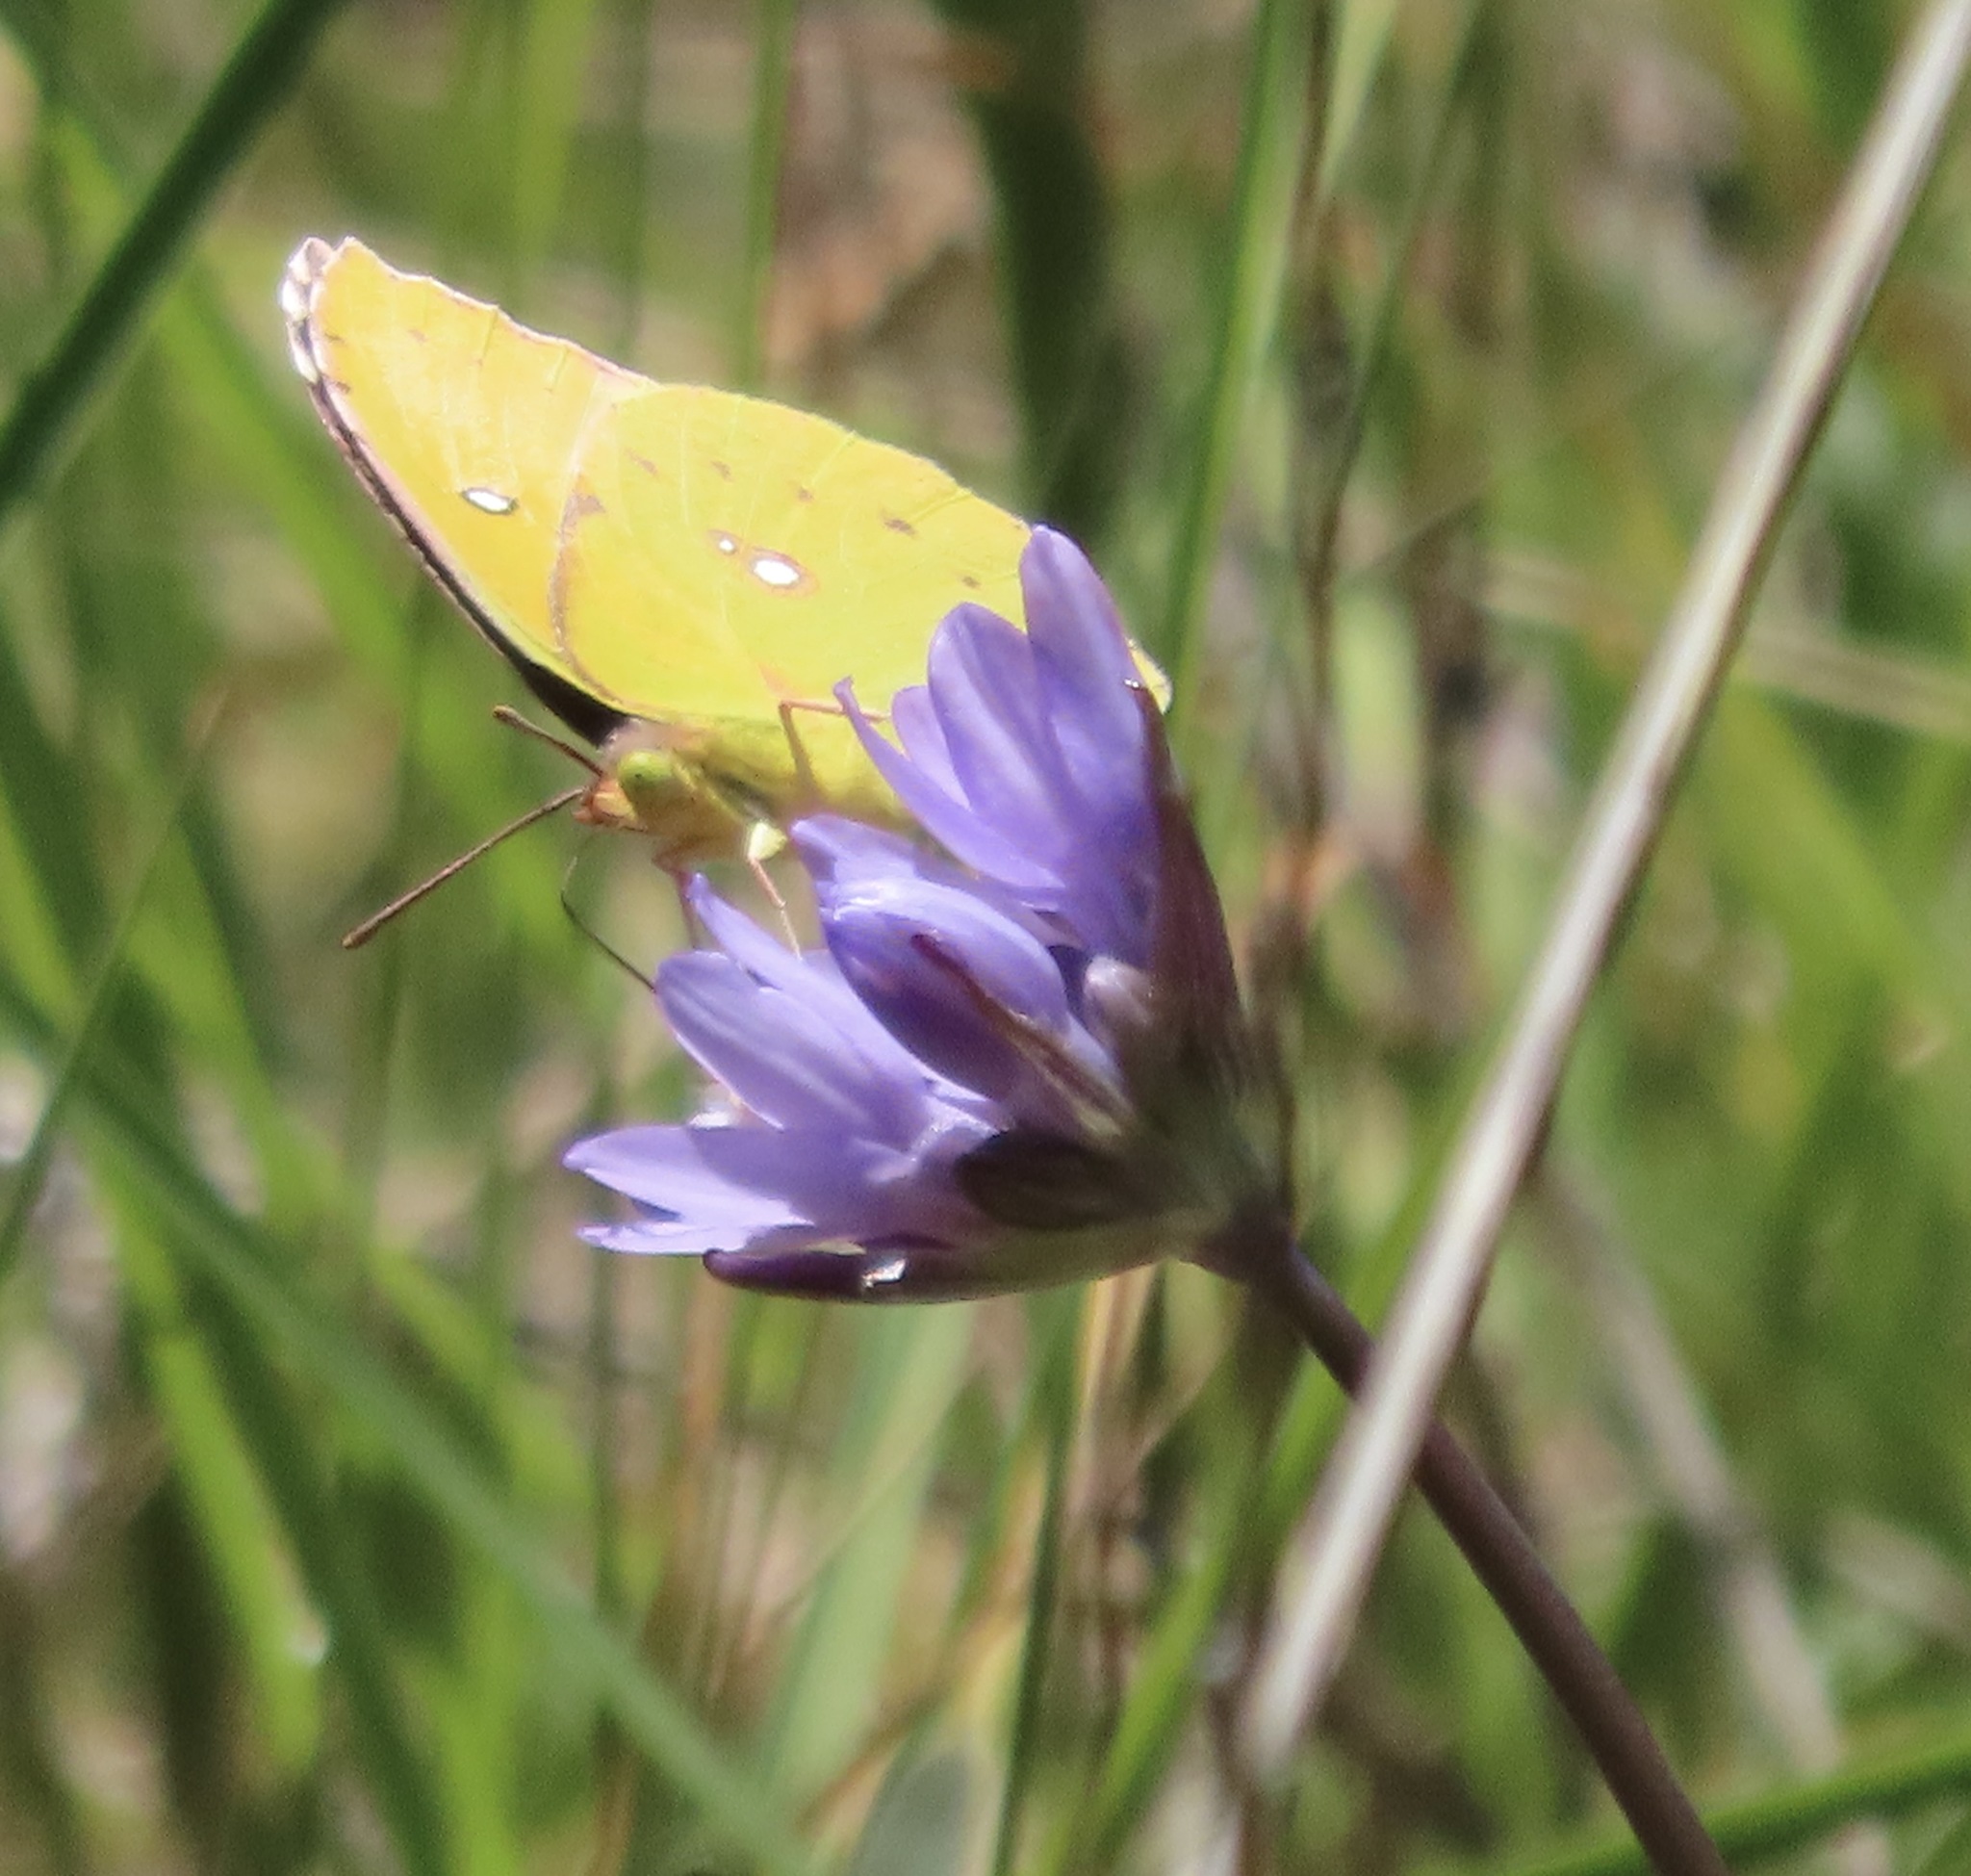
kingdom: Animalia
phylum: Arthropoda
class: Insecta
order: Lepidoptera
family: Pieridae
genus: Zerene
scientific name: Zerene eurydice
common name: California dogface
